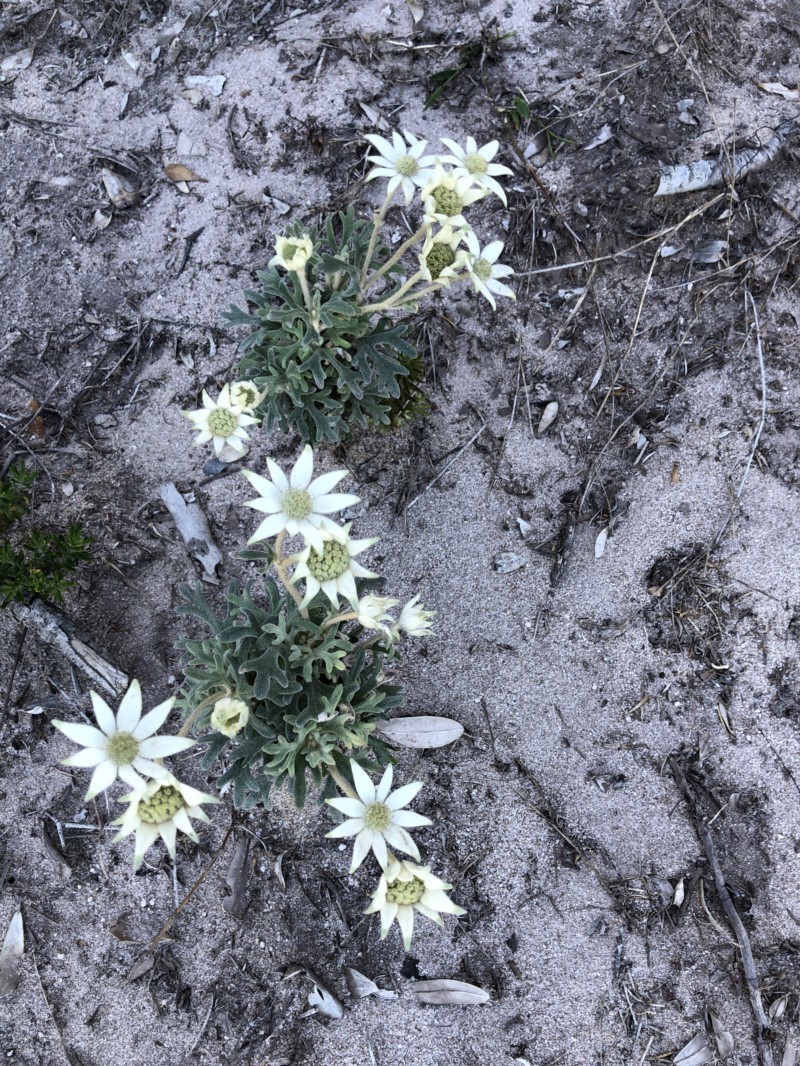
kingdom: Plantae
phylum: Tracheophyta
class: Magnoliopsida
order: Apiales
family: Apiaceae
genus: Actinotus
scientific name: Actinotus helianthi
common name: Flannel-flower
